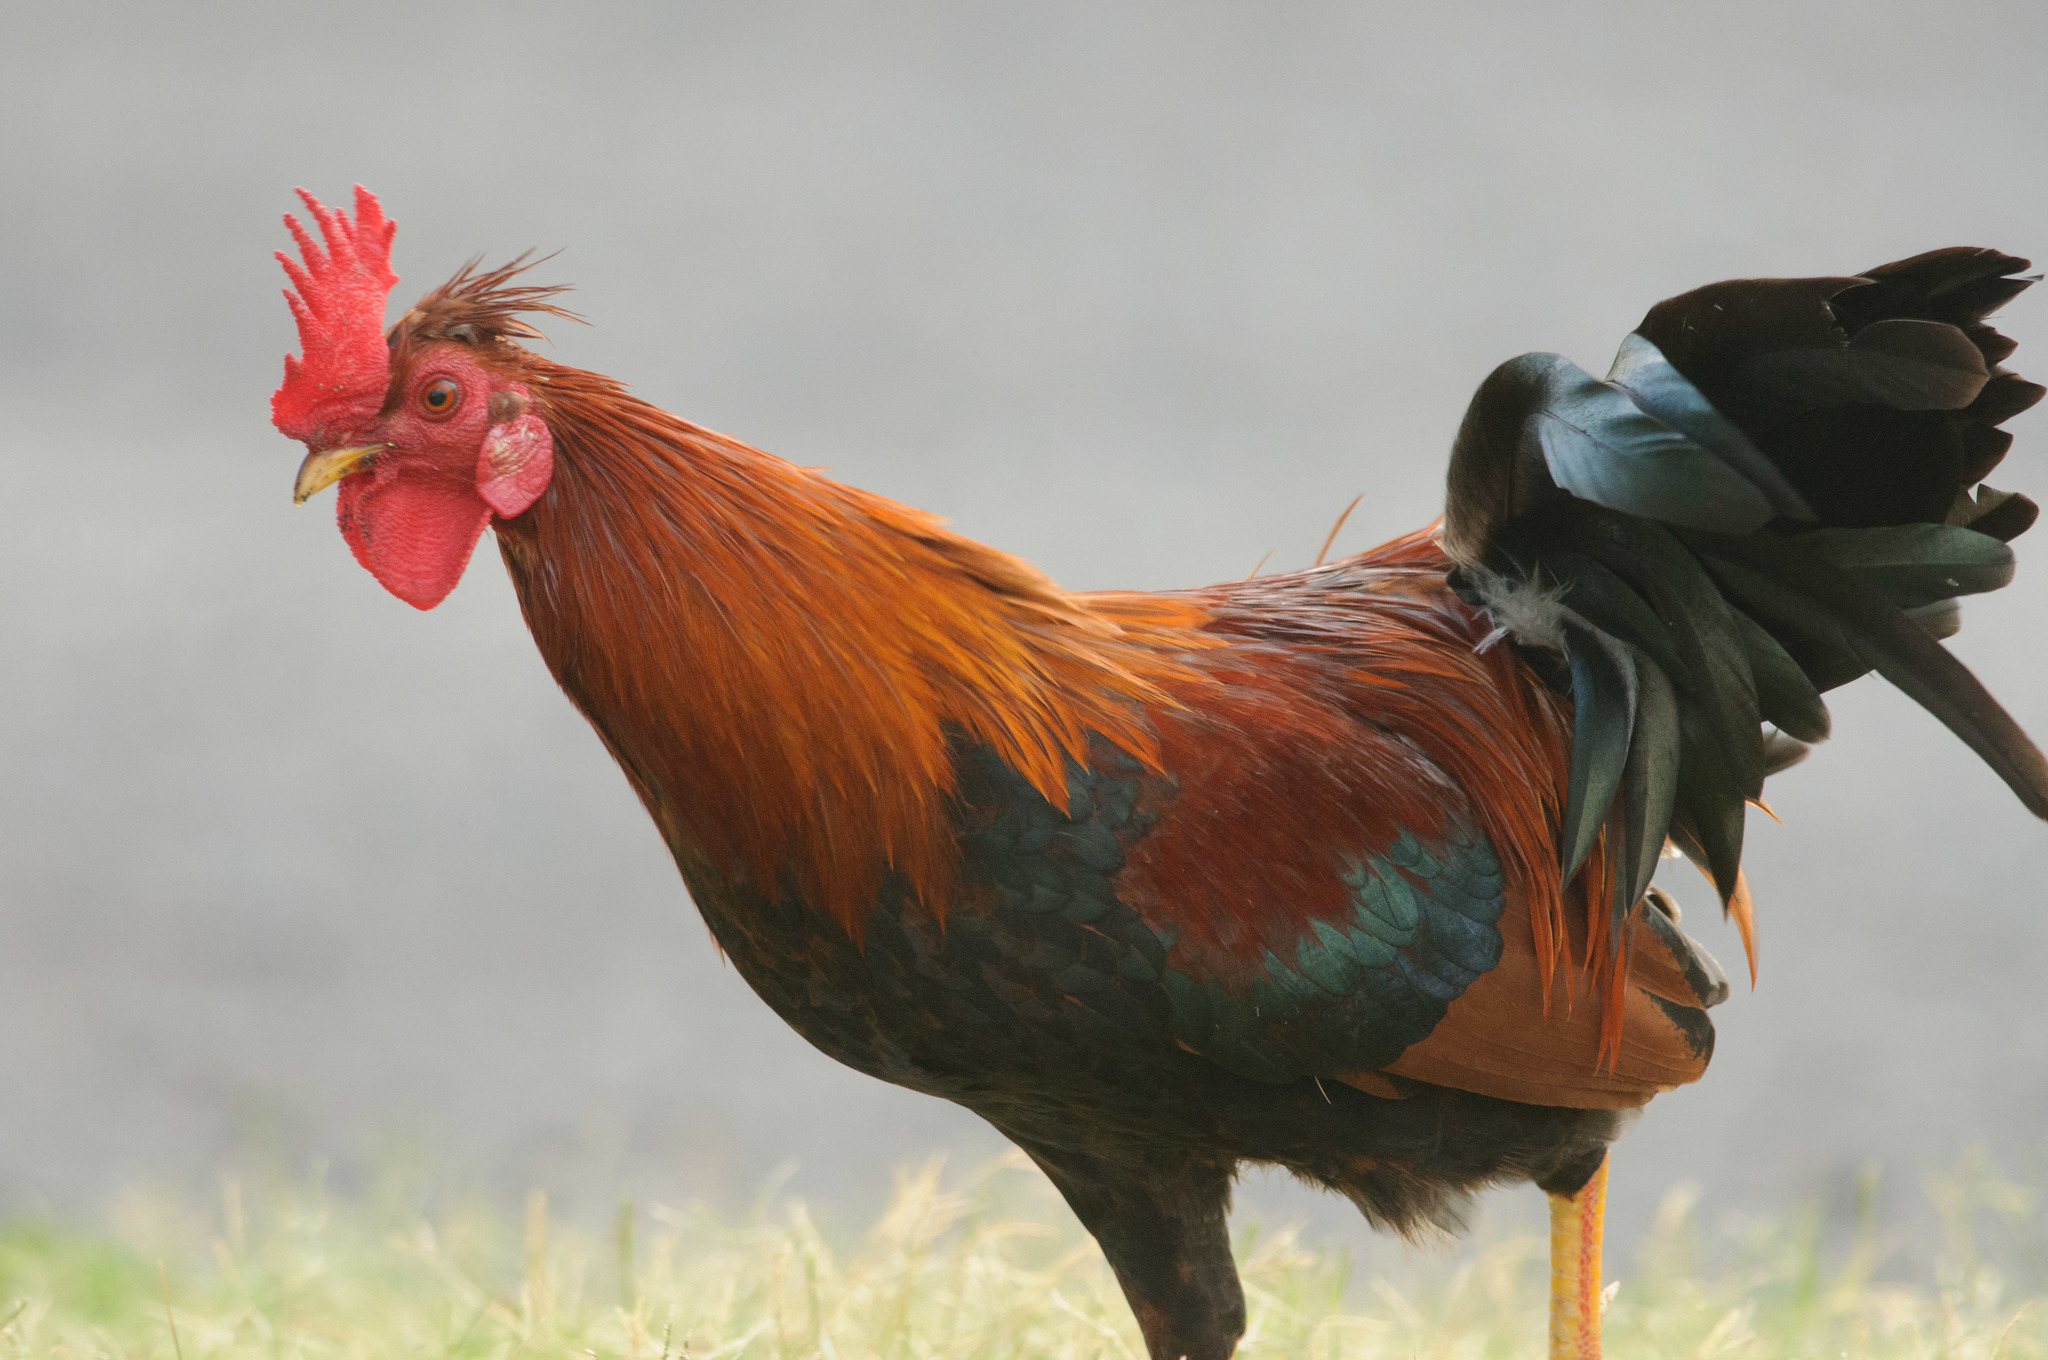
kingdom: Animalia
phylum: Chordata
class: Aves
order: Galliformes
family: Phasianidae
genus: Gallus
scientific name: Gallus gallus
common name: Red junglefowl
